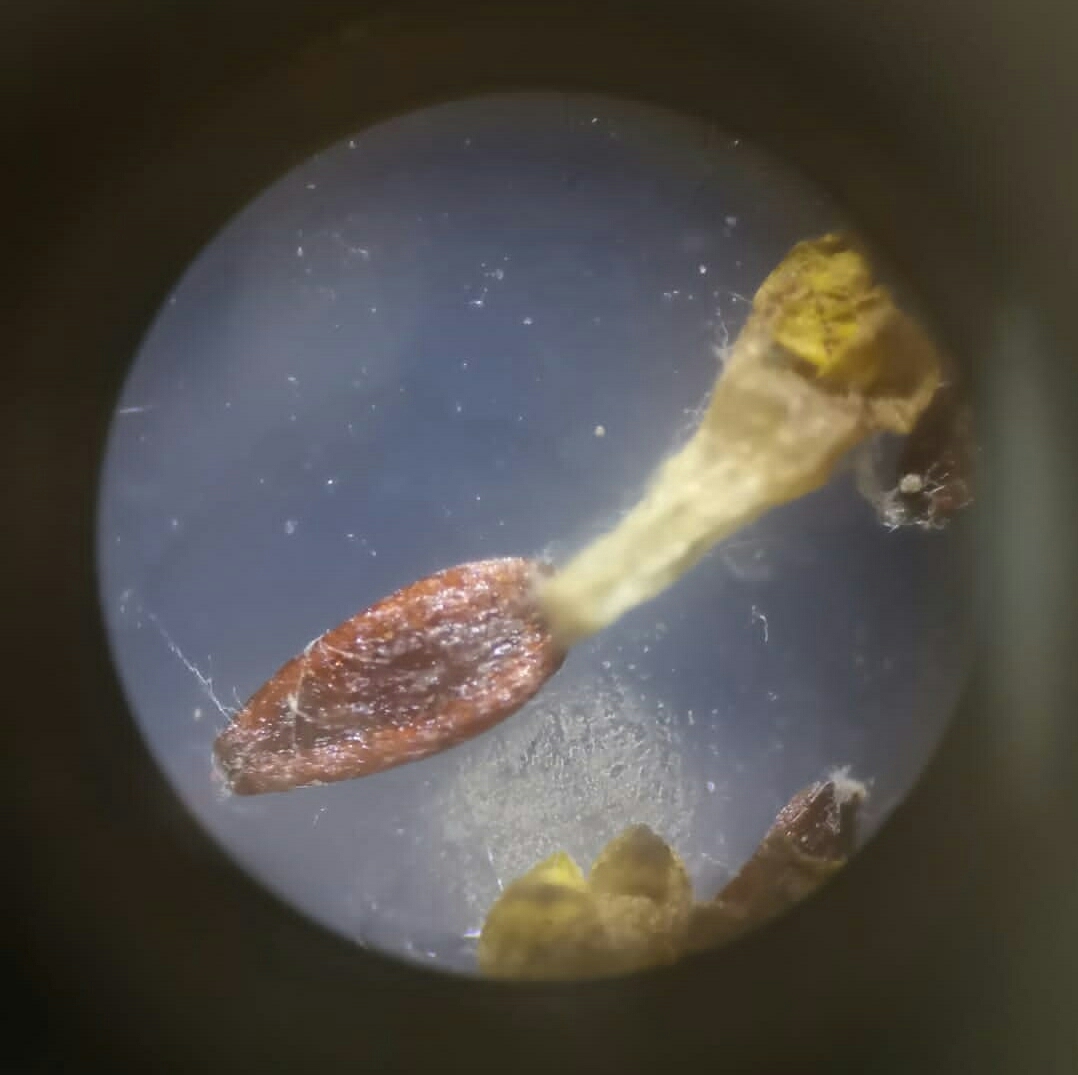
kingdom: Plantae
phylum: Tracheophyta
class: Magnoliopsida
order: Asterales
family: Asteraceae
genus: Cotula
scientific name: Cotula vulgaris
